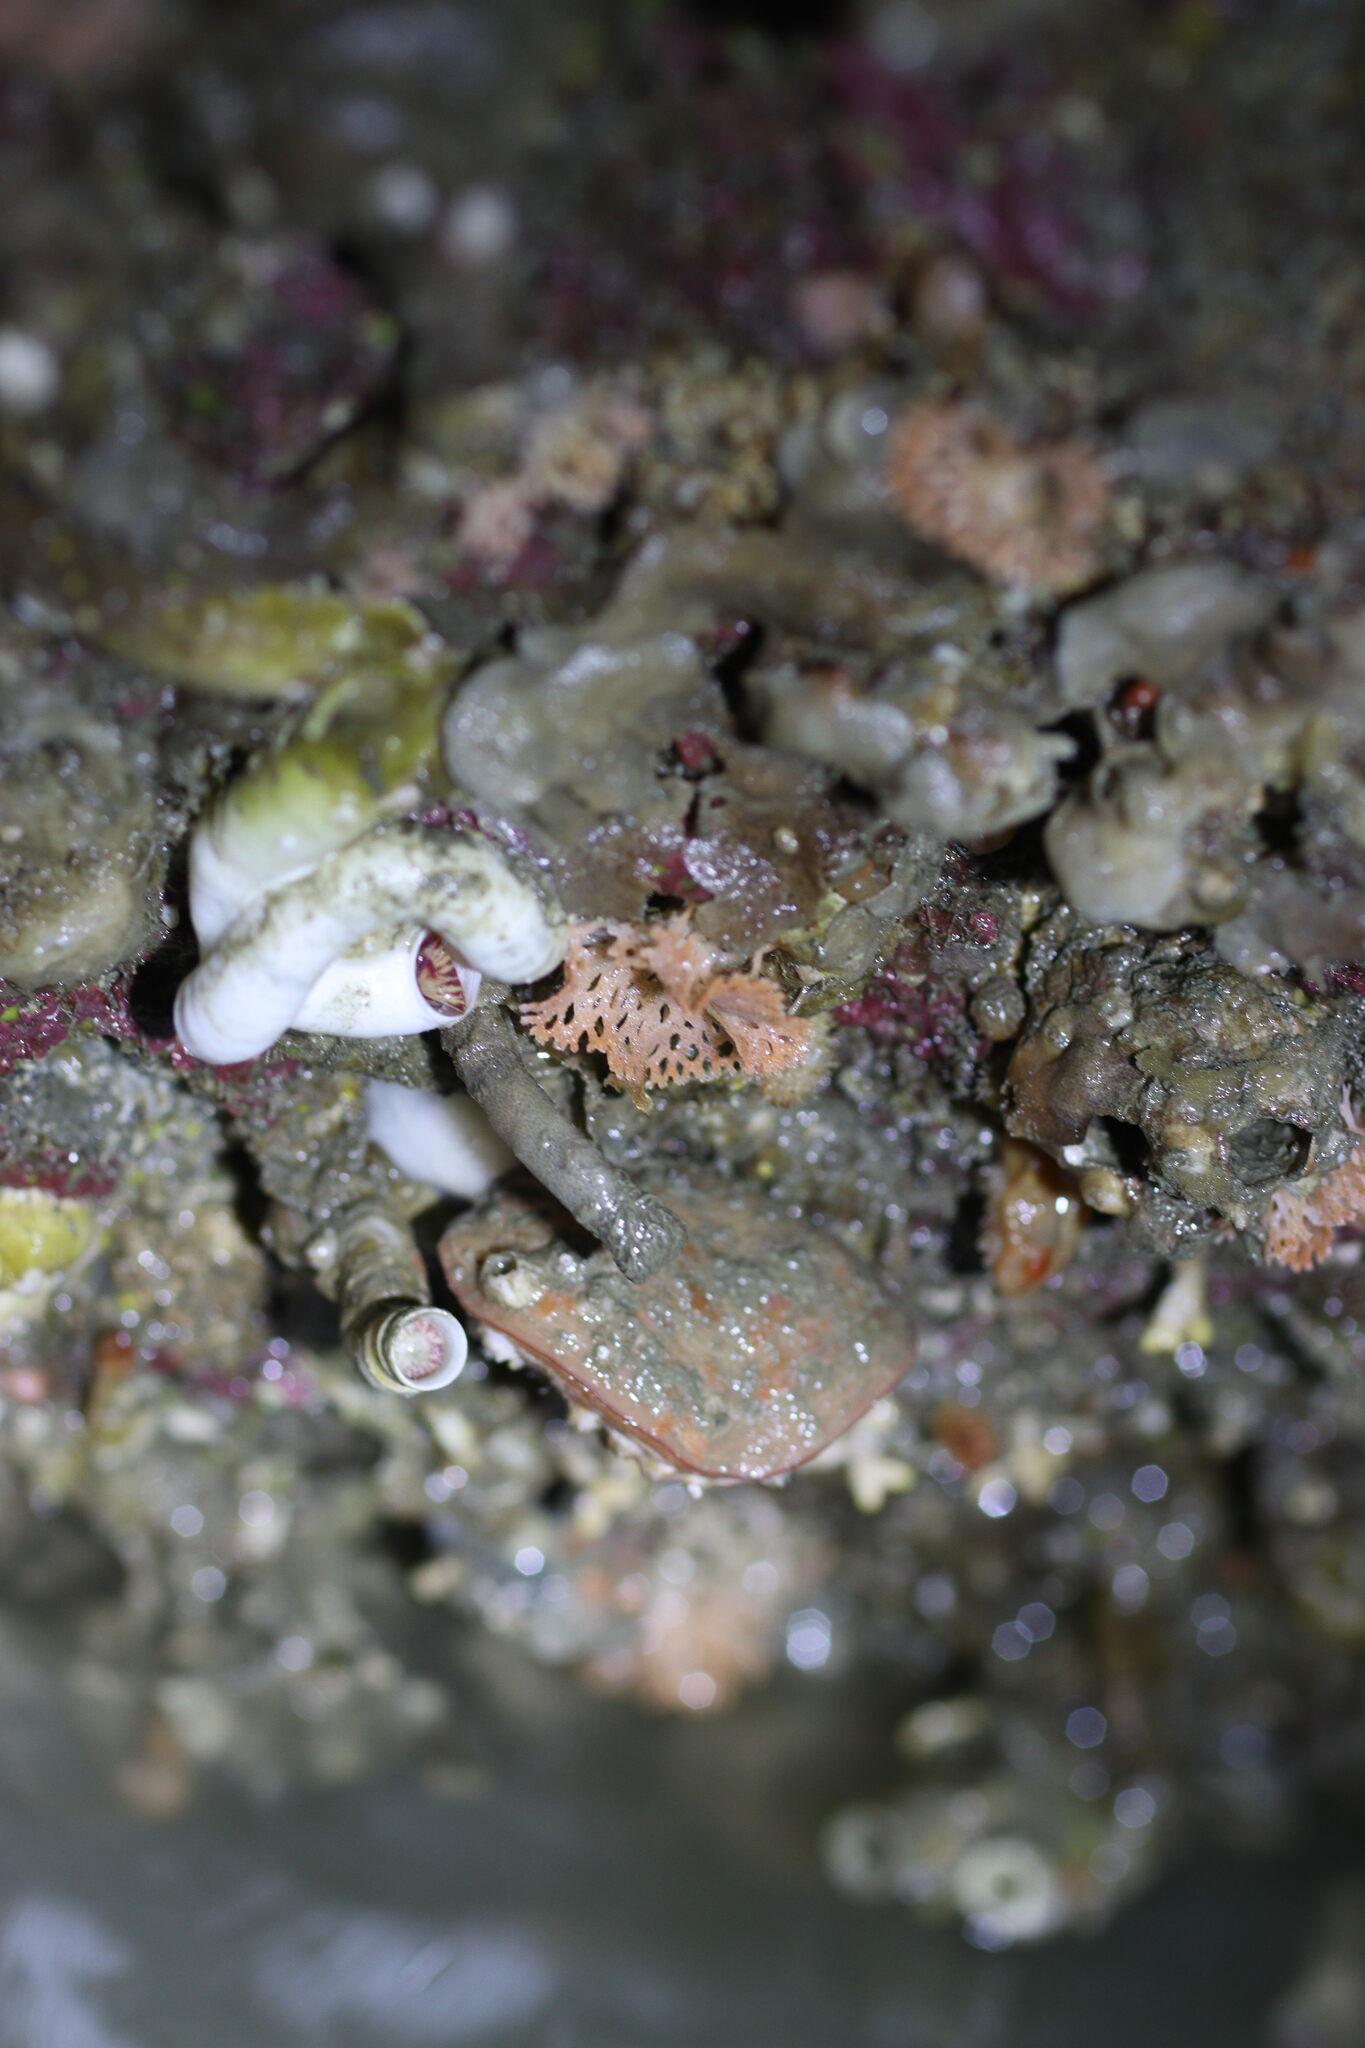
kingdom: Animalia
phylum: Bryozoa
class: Gymnolaemata
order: Cheilostomatida
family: Phidoloporidae
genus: Phidolopora
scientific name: Phidolopora pacifica
